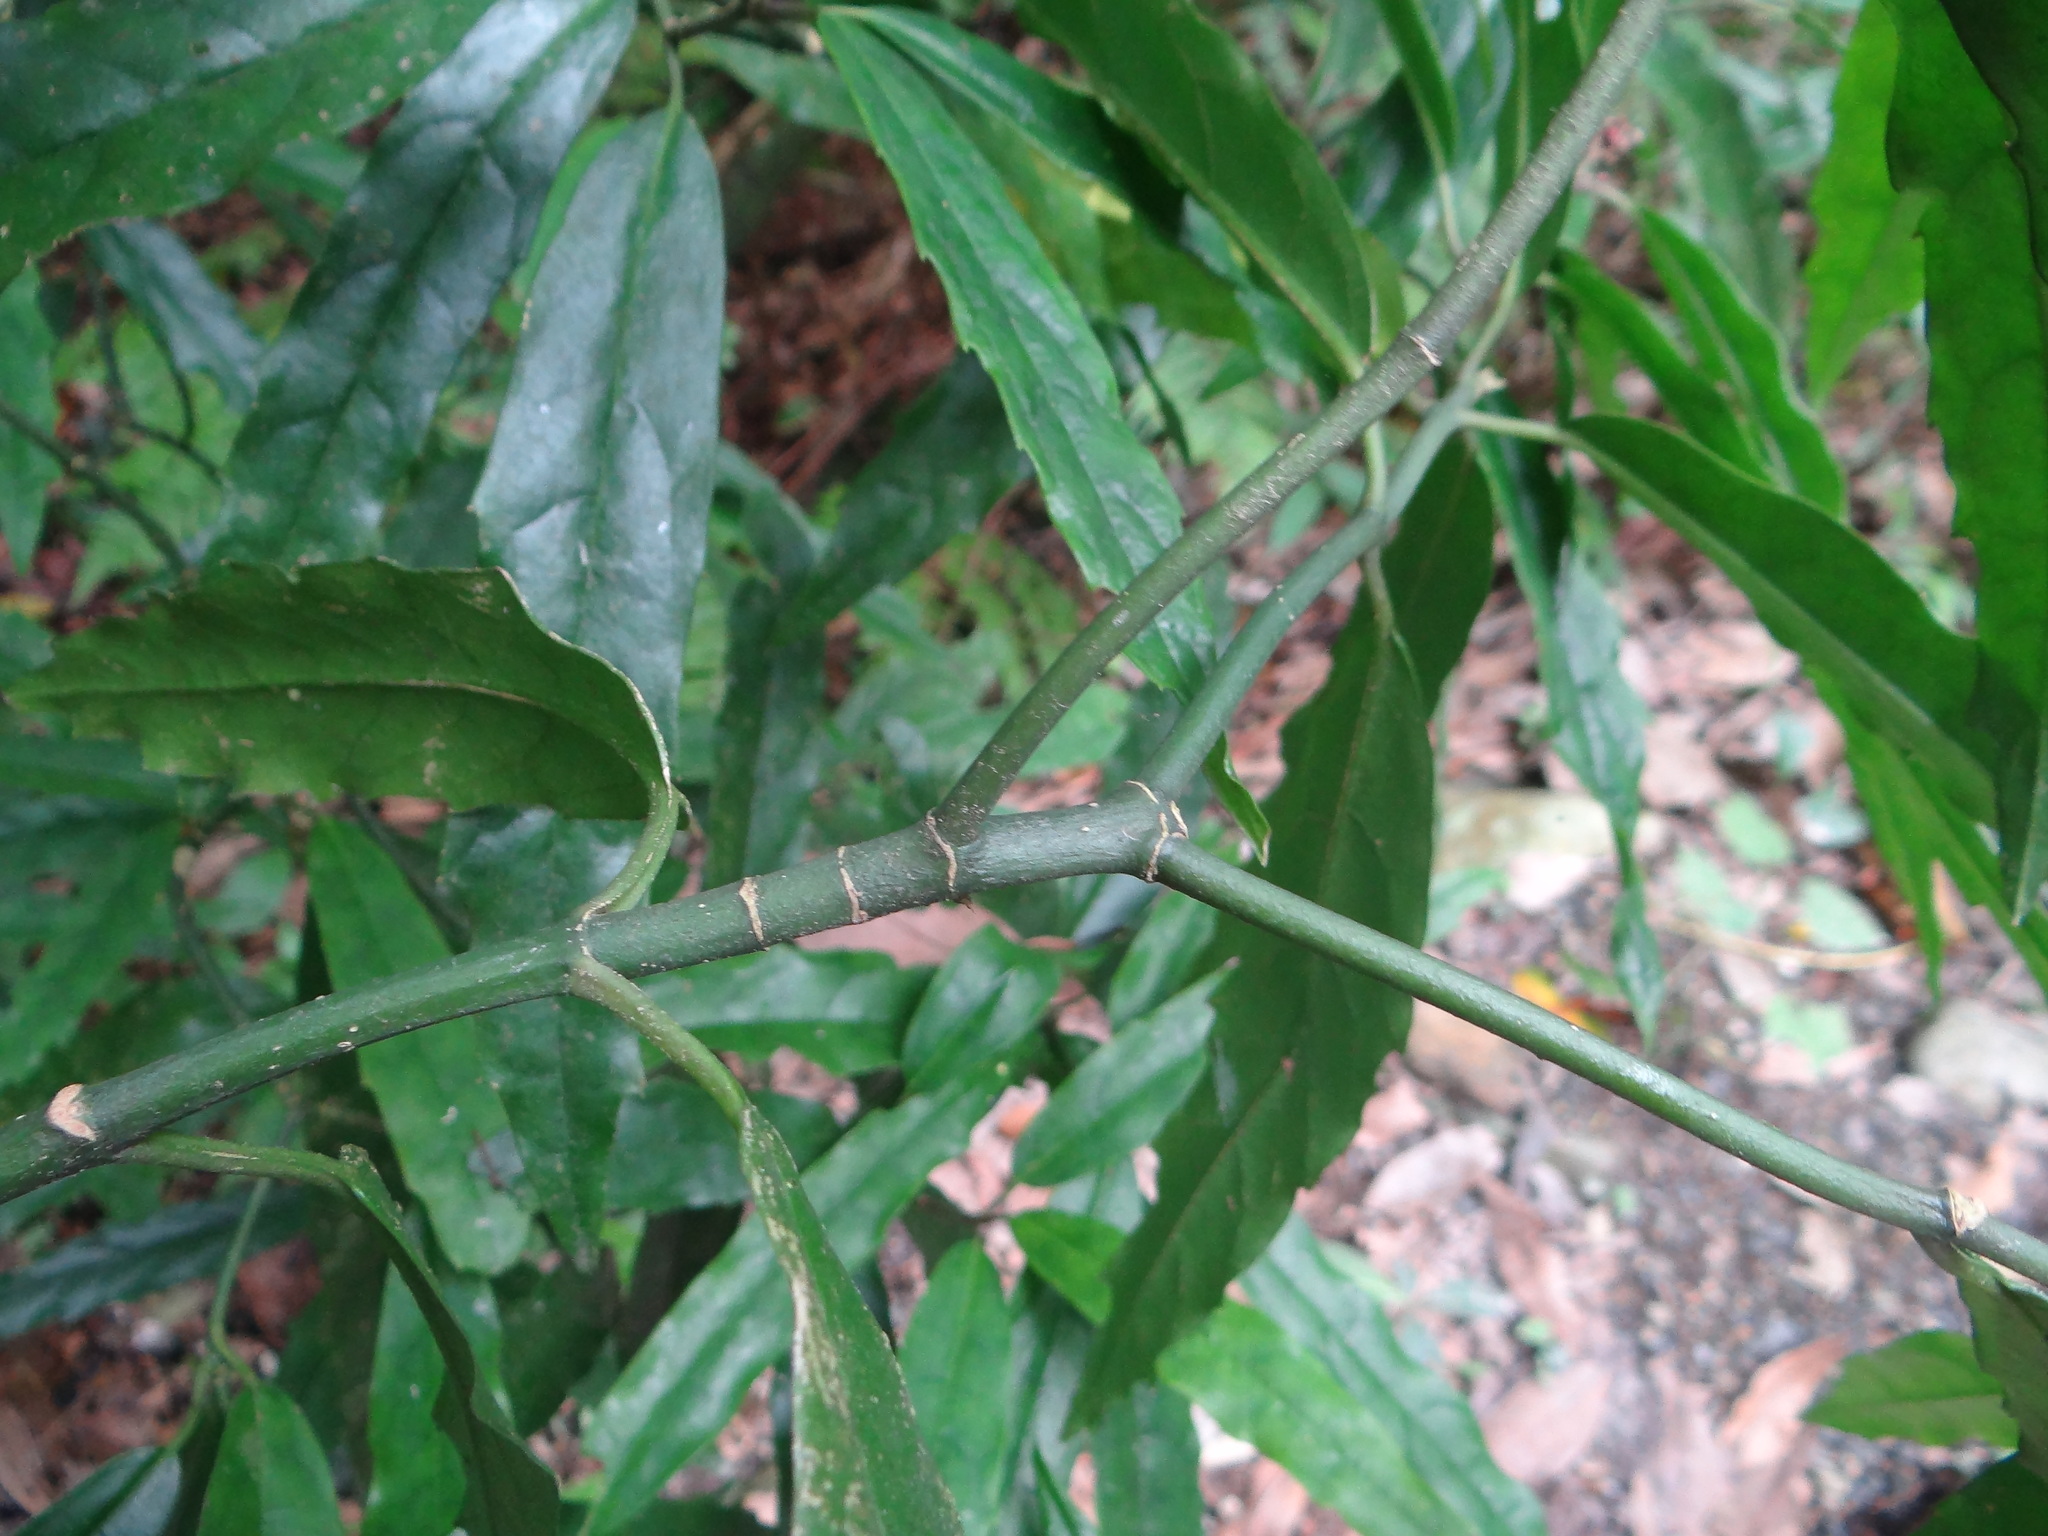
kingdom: Plantae
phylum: Tracheophyta
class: Magnoliopsida
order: Garryales
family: Garryaceae
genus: Aucuba
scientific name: Aucuba chinensis
